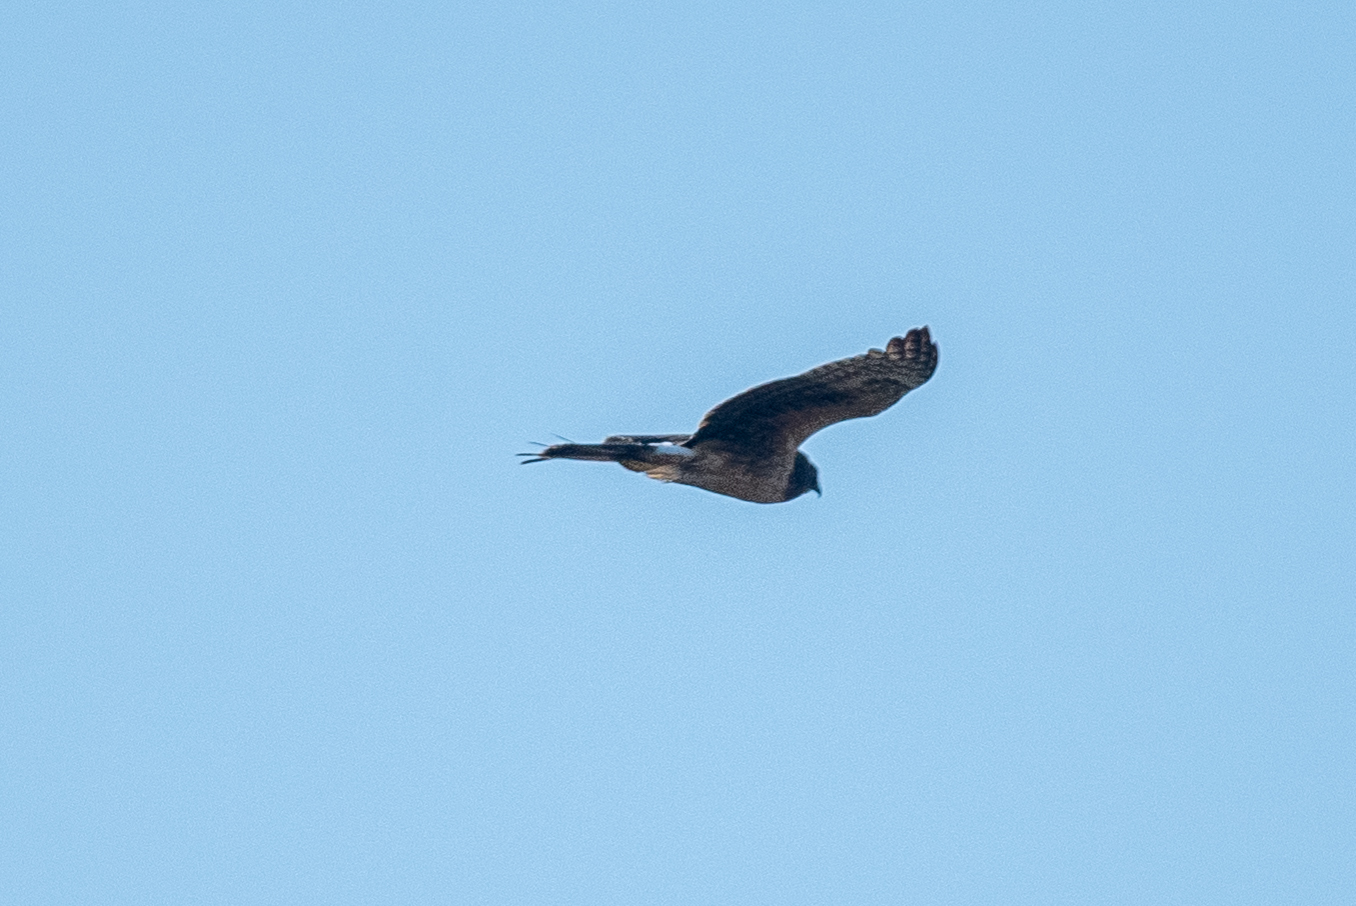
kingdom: Animalia
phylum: Chordata
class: Aves
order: Accipitriformes
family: Accipitridae
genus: Circus
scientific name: Circus cyaneus
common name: Hen harrier
